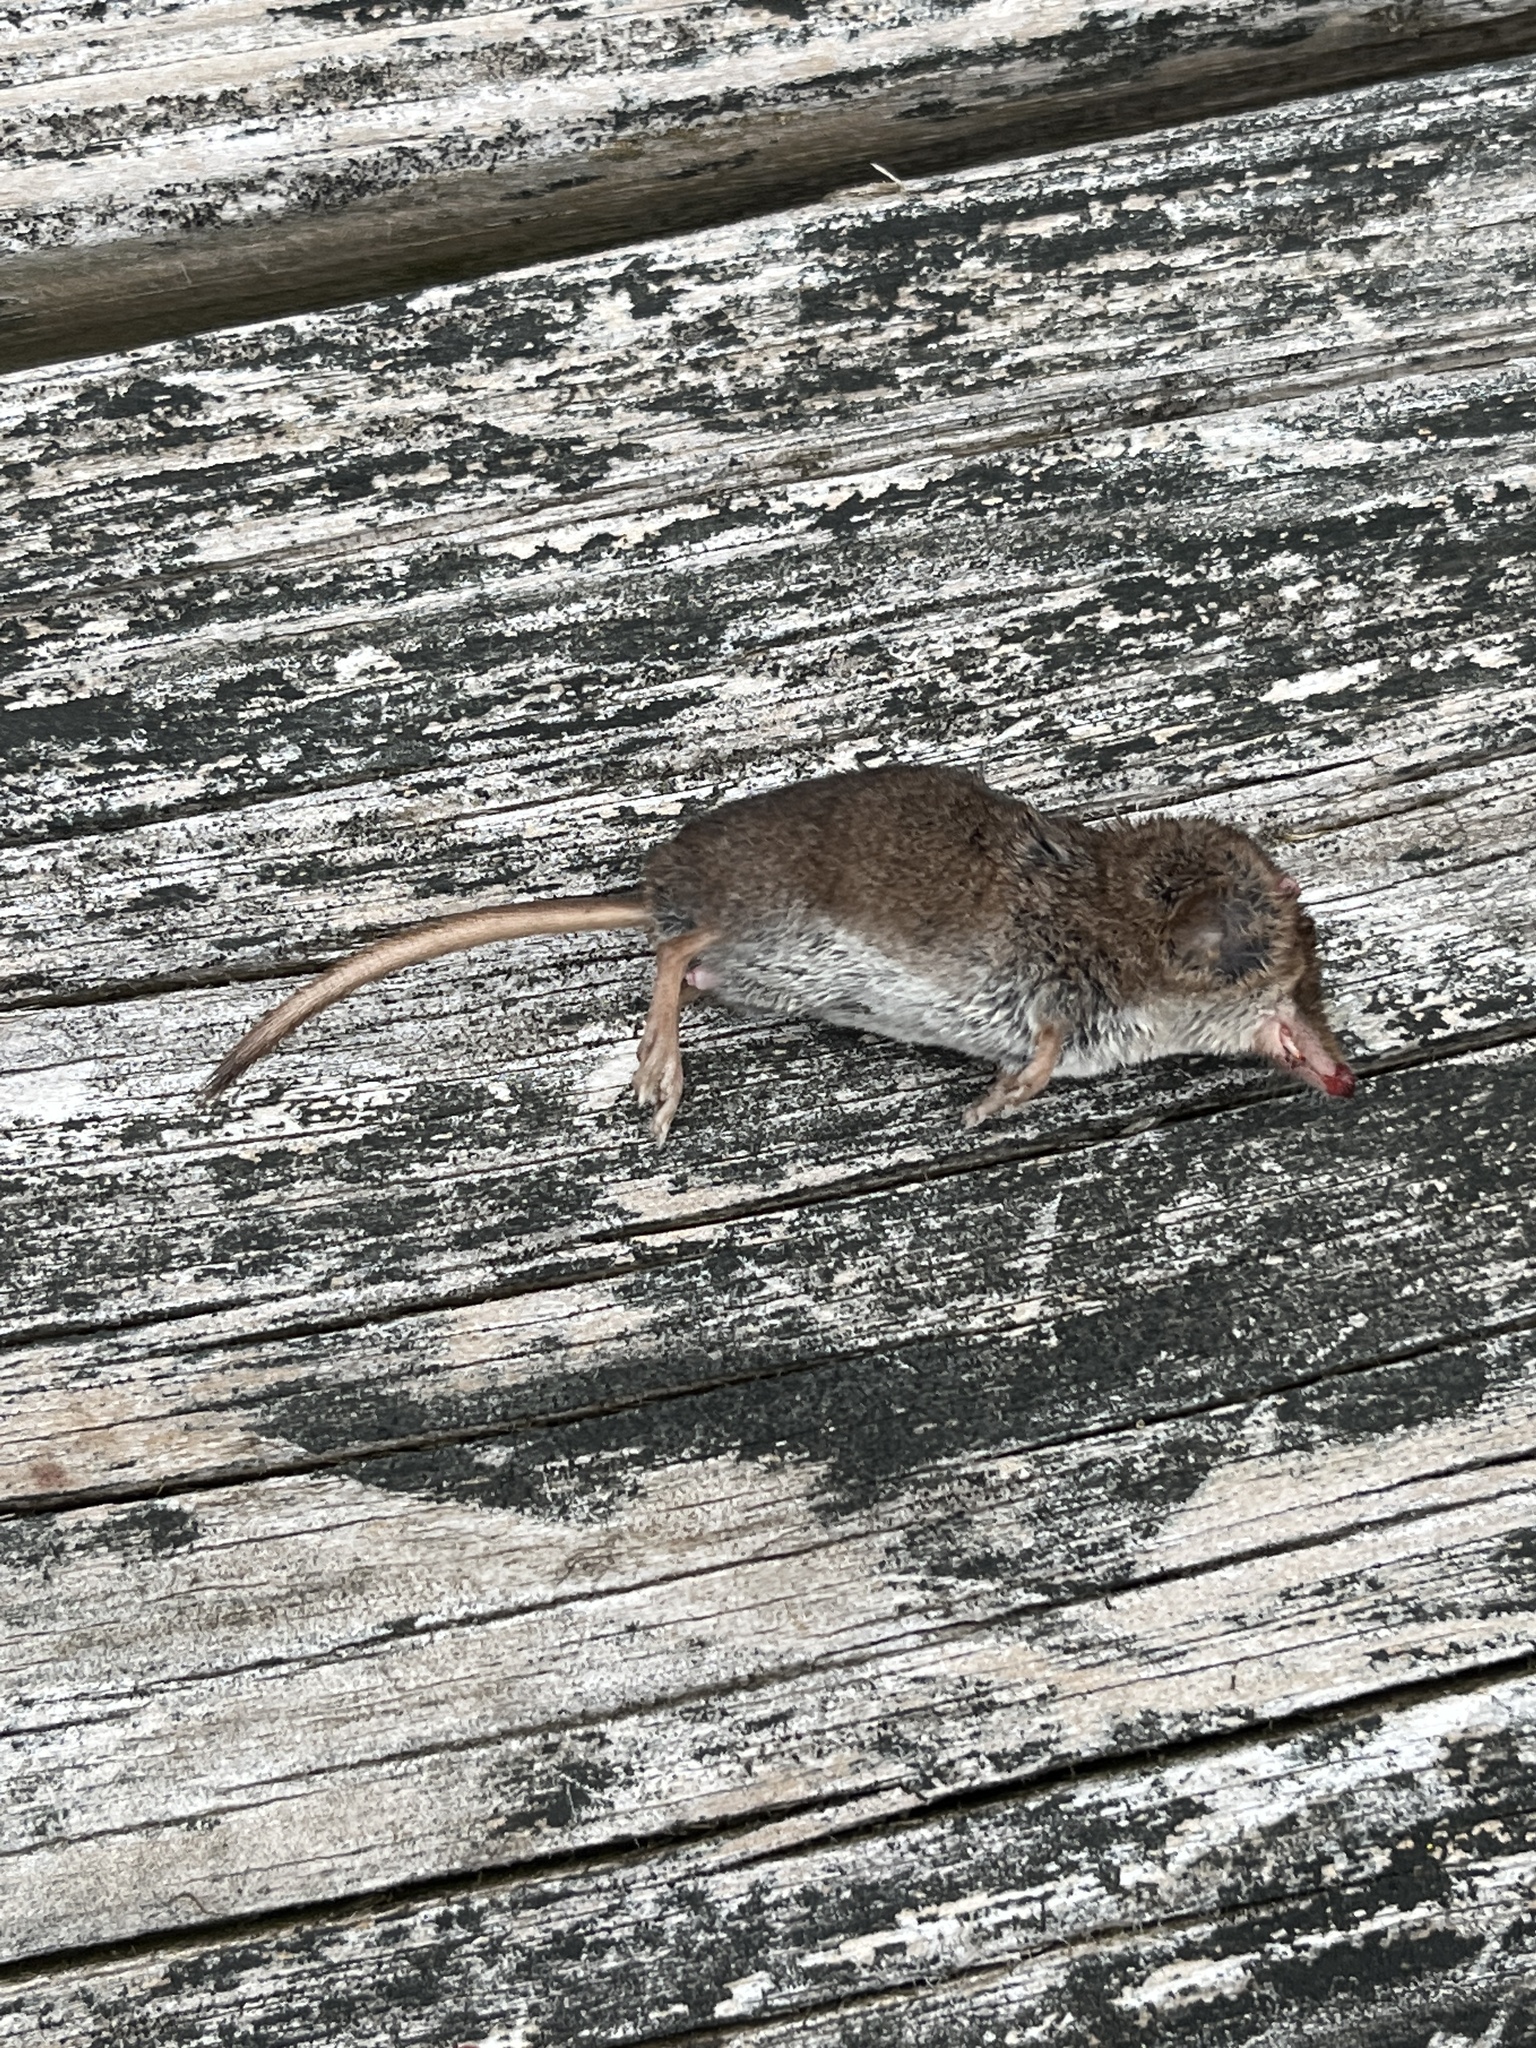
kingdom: Animalia
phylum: Chordata
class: Mammalia
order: Soricomorpha
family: Soricidae
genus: Sorex
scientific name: Sorex cinereus
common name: Cinereus shrew
